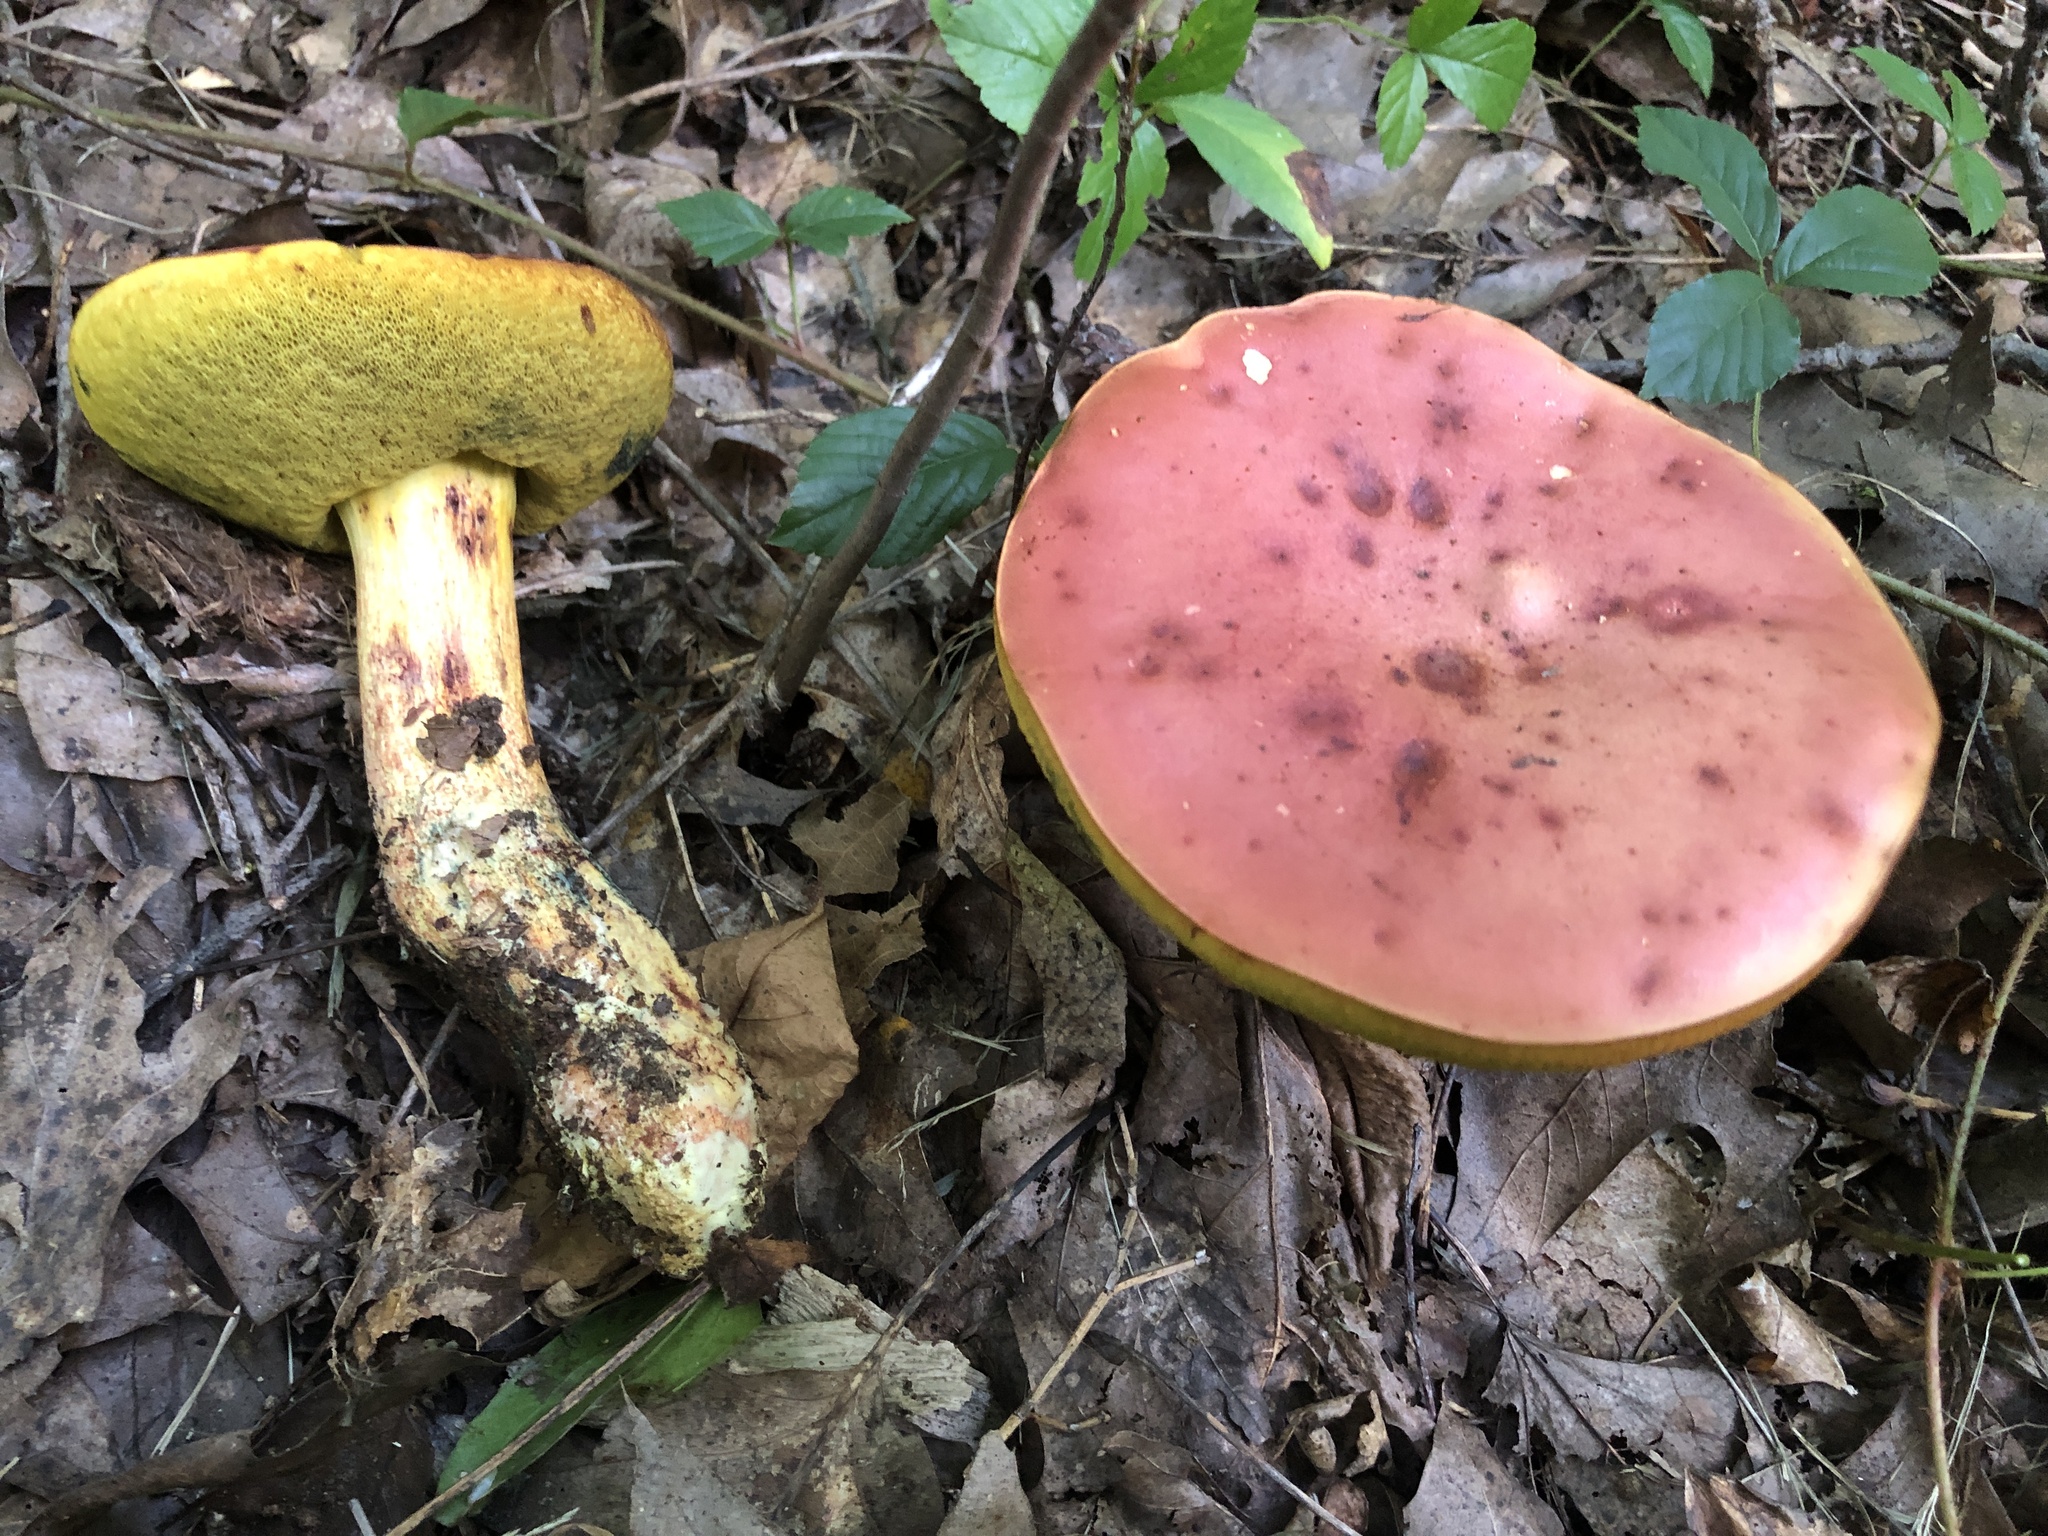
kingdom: Fungi
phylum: Basidiomycota
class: Agaricomycetes
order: Boletales
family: Boletaceae
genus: Lanmaoa
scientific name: Lanmaoa pseudosensibilis
